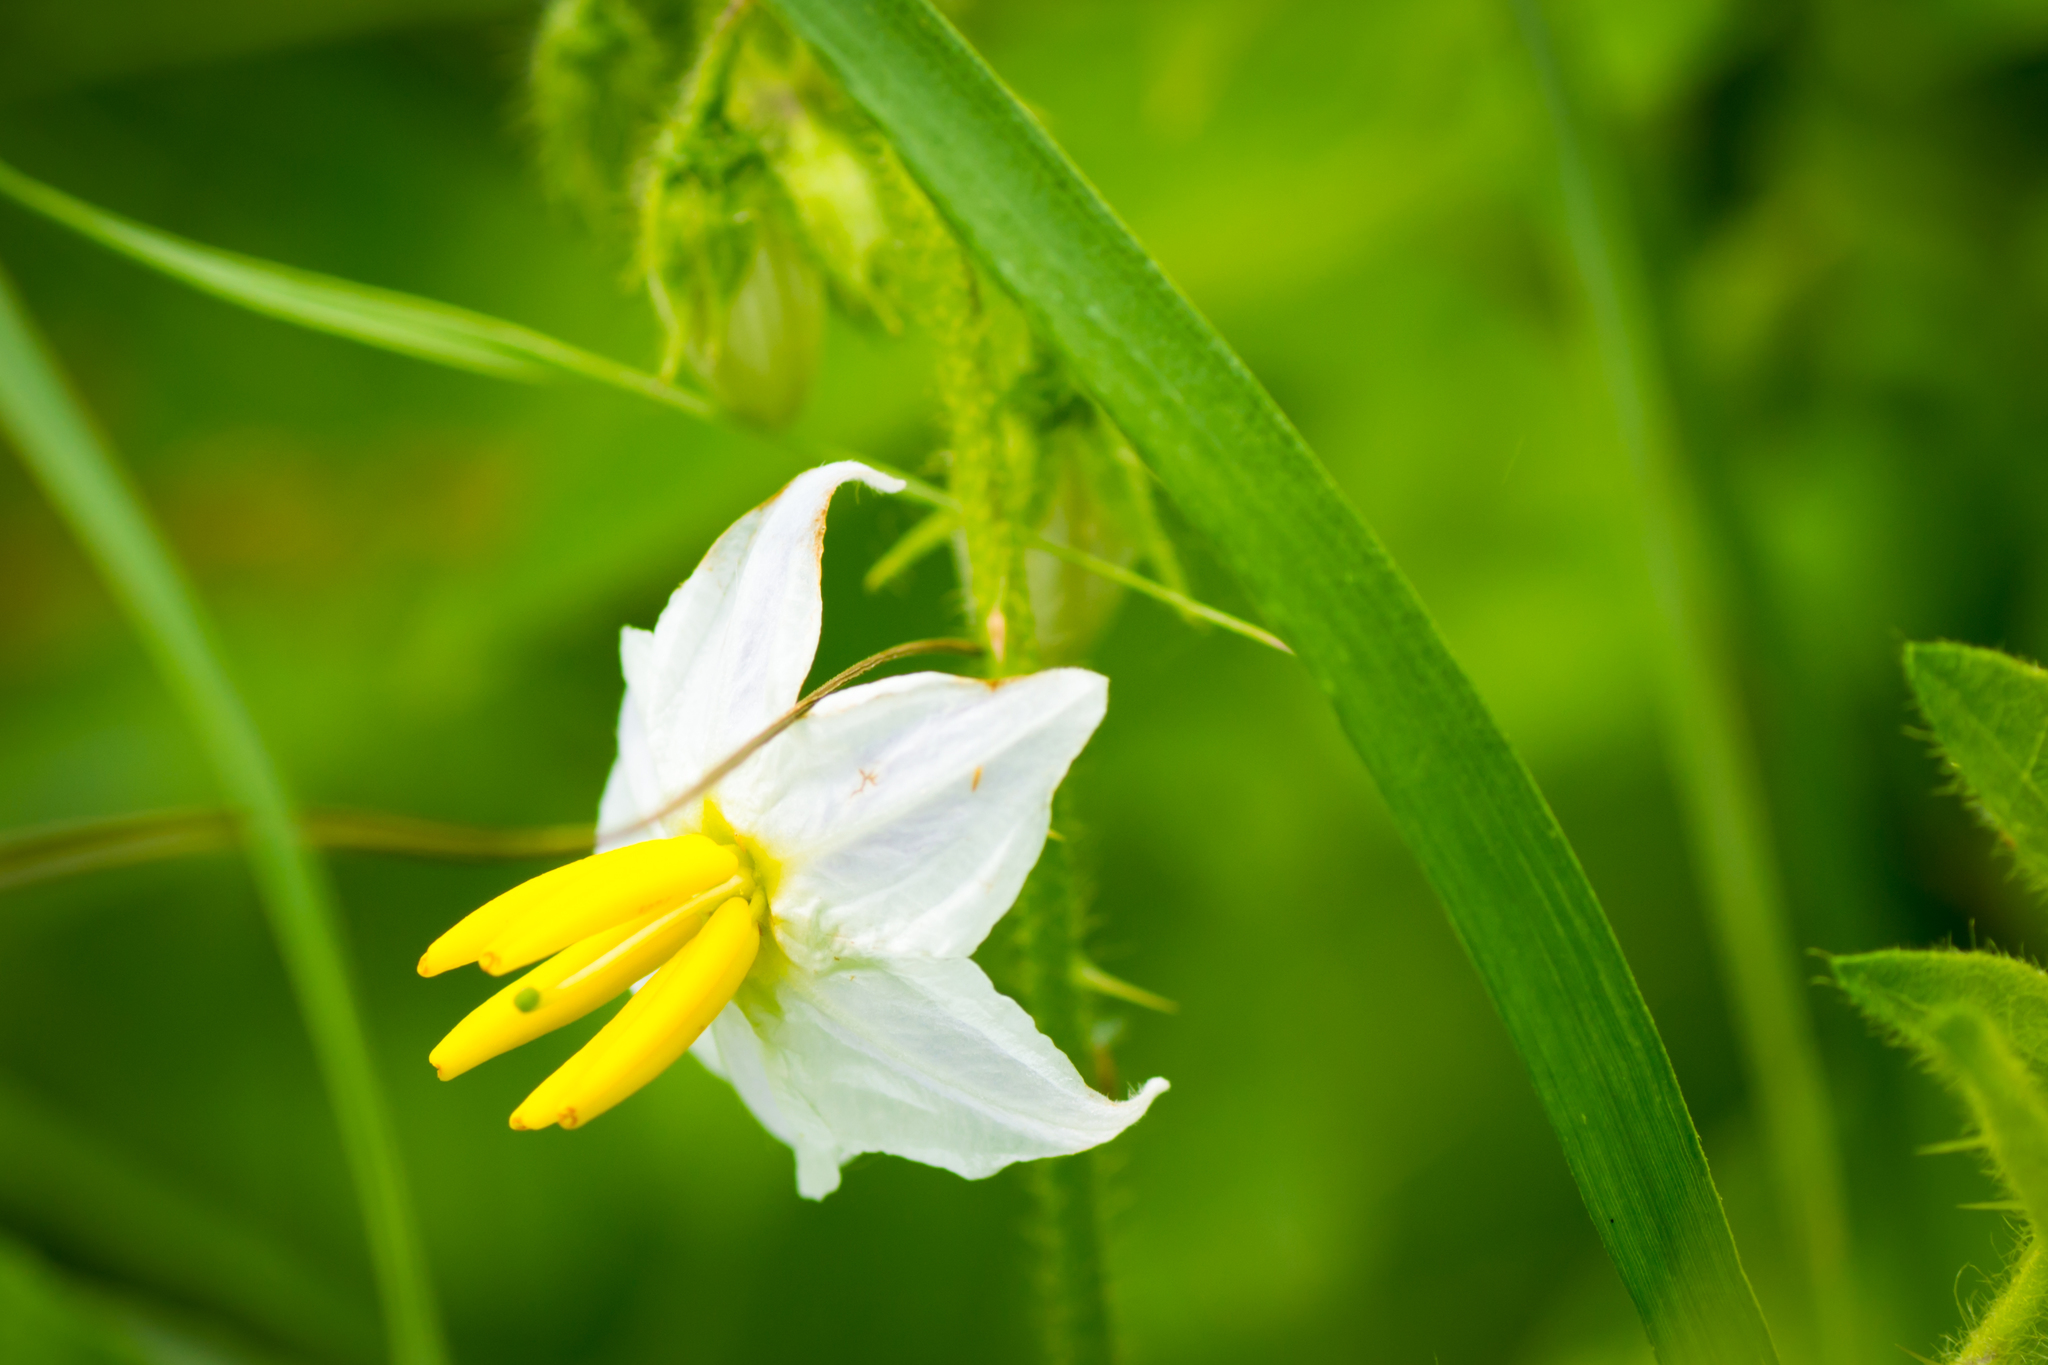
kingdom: Plantae
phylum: Tracheophyta
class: Magnoliopsida
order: Solanales
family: Solanaceae
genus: Solanum
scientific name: Solanum carolinense
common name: Horse-nettle
